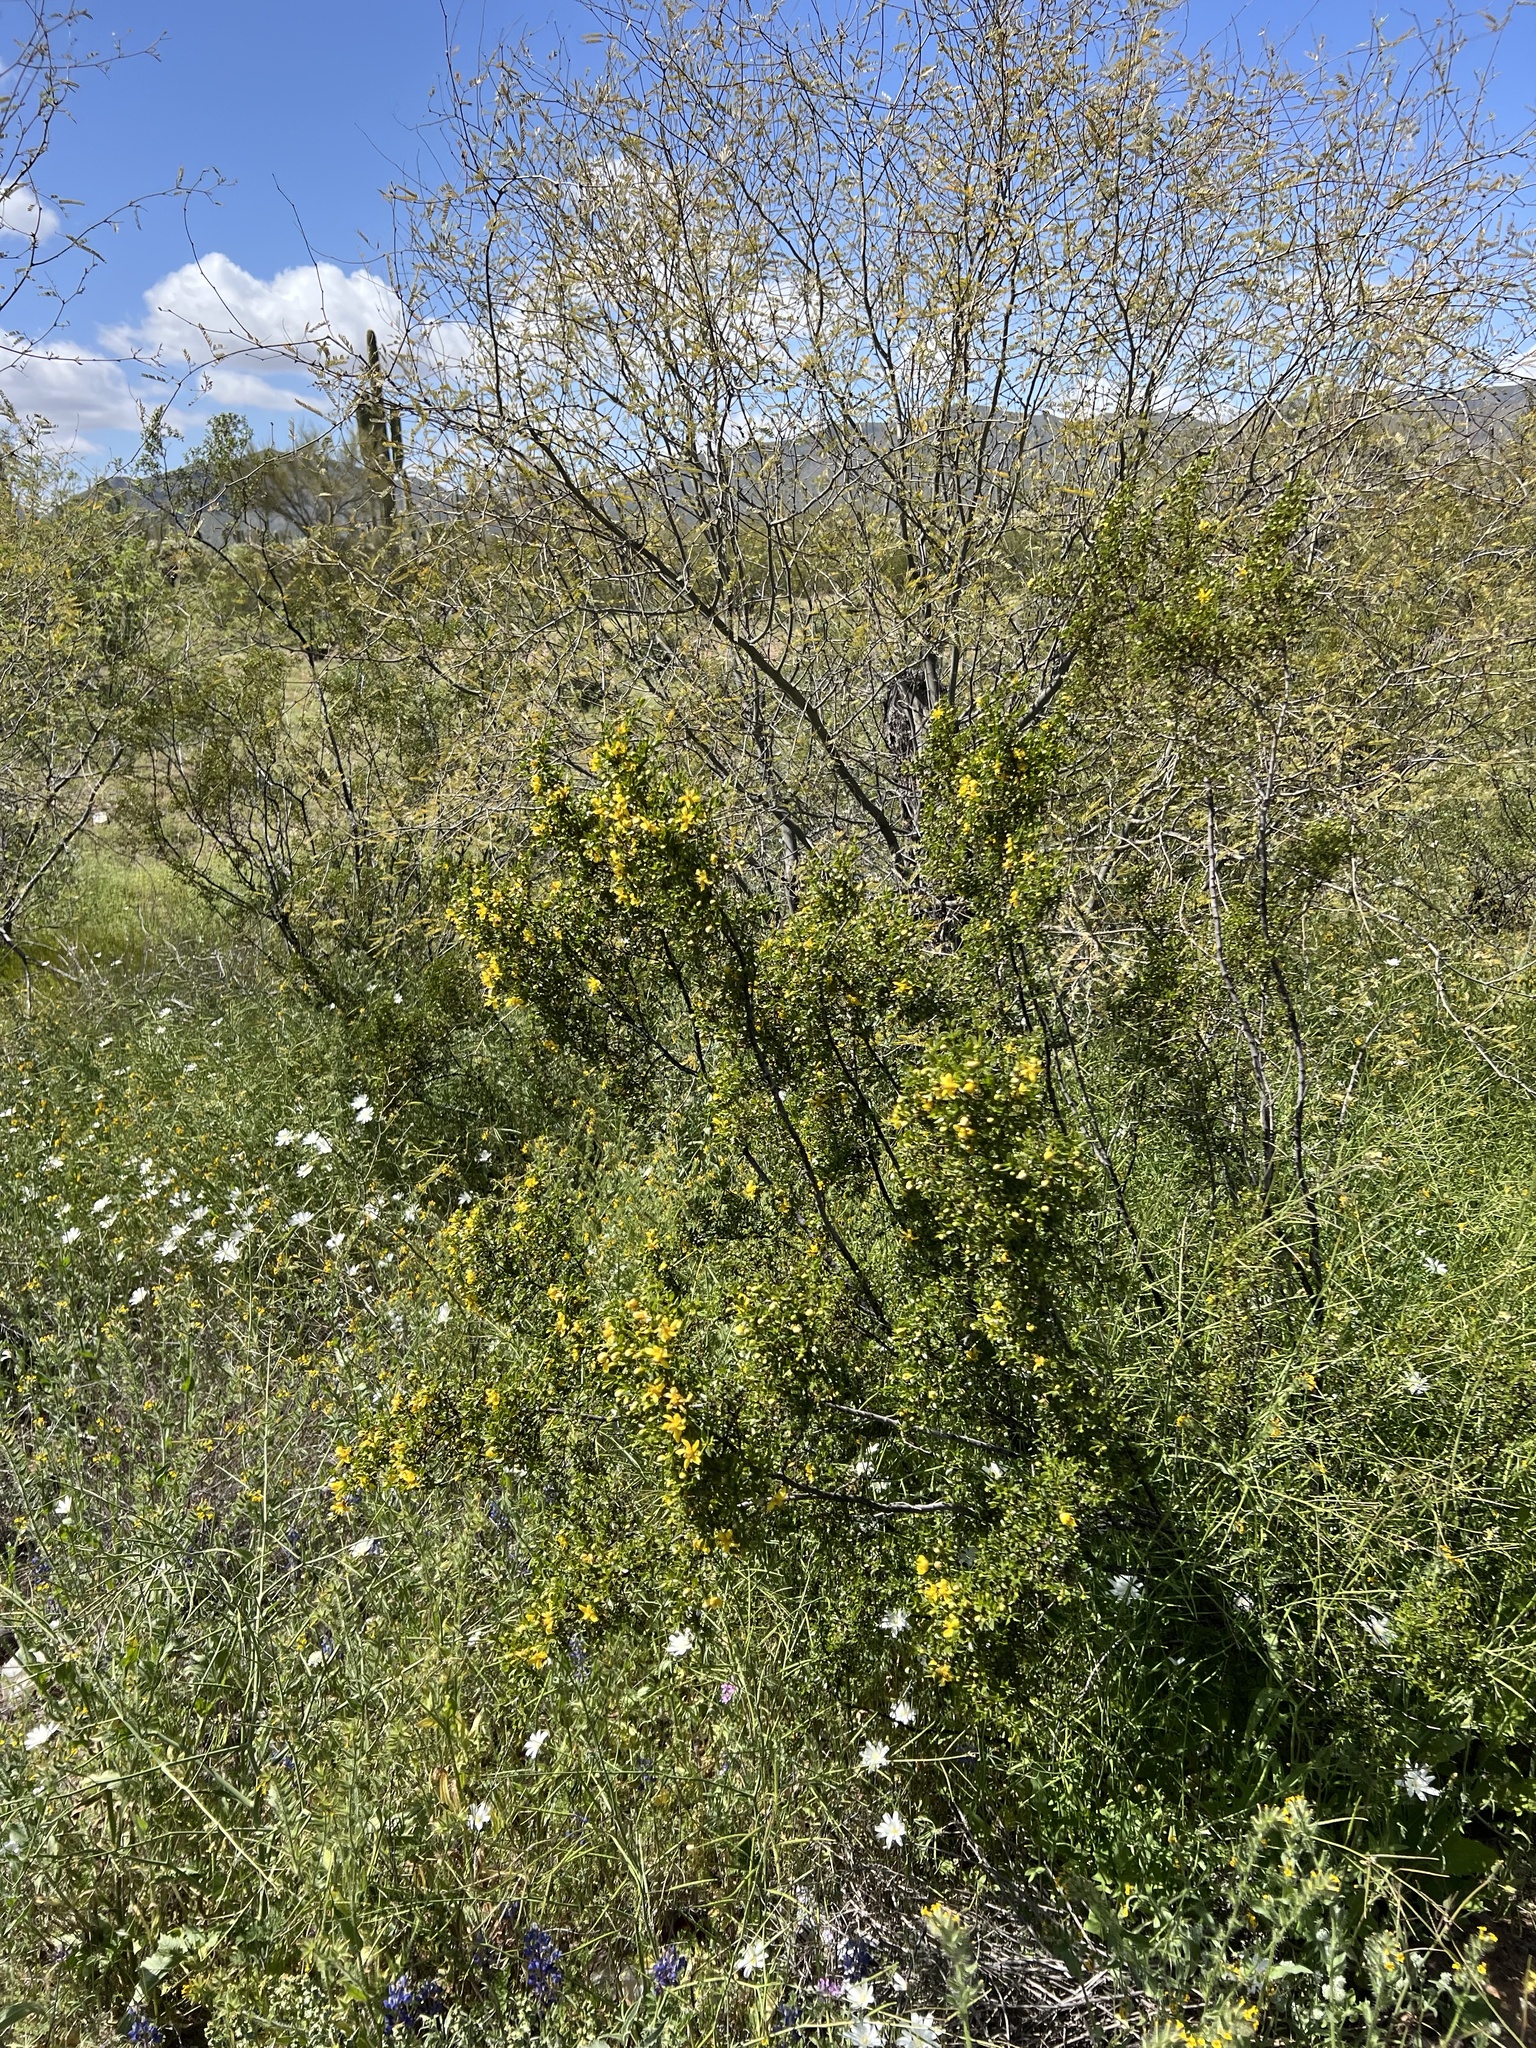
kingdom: Plantae
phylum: Tracheophyta
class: Magnoliopsida
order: Zygophyllales
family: Zygophyllaceae
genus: Larrea
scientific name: Larrea tridentata
